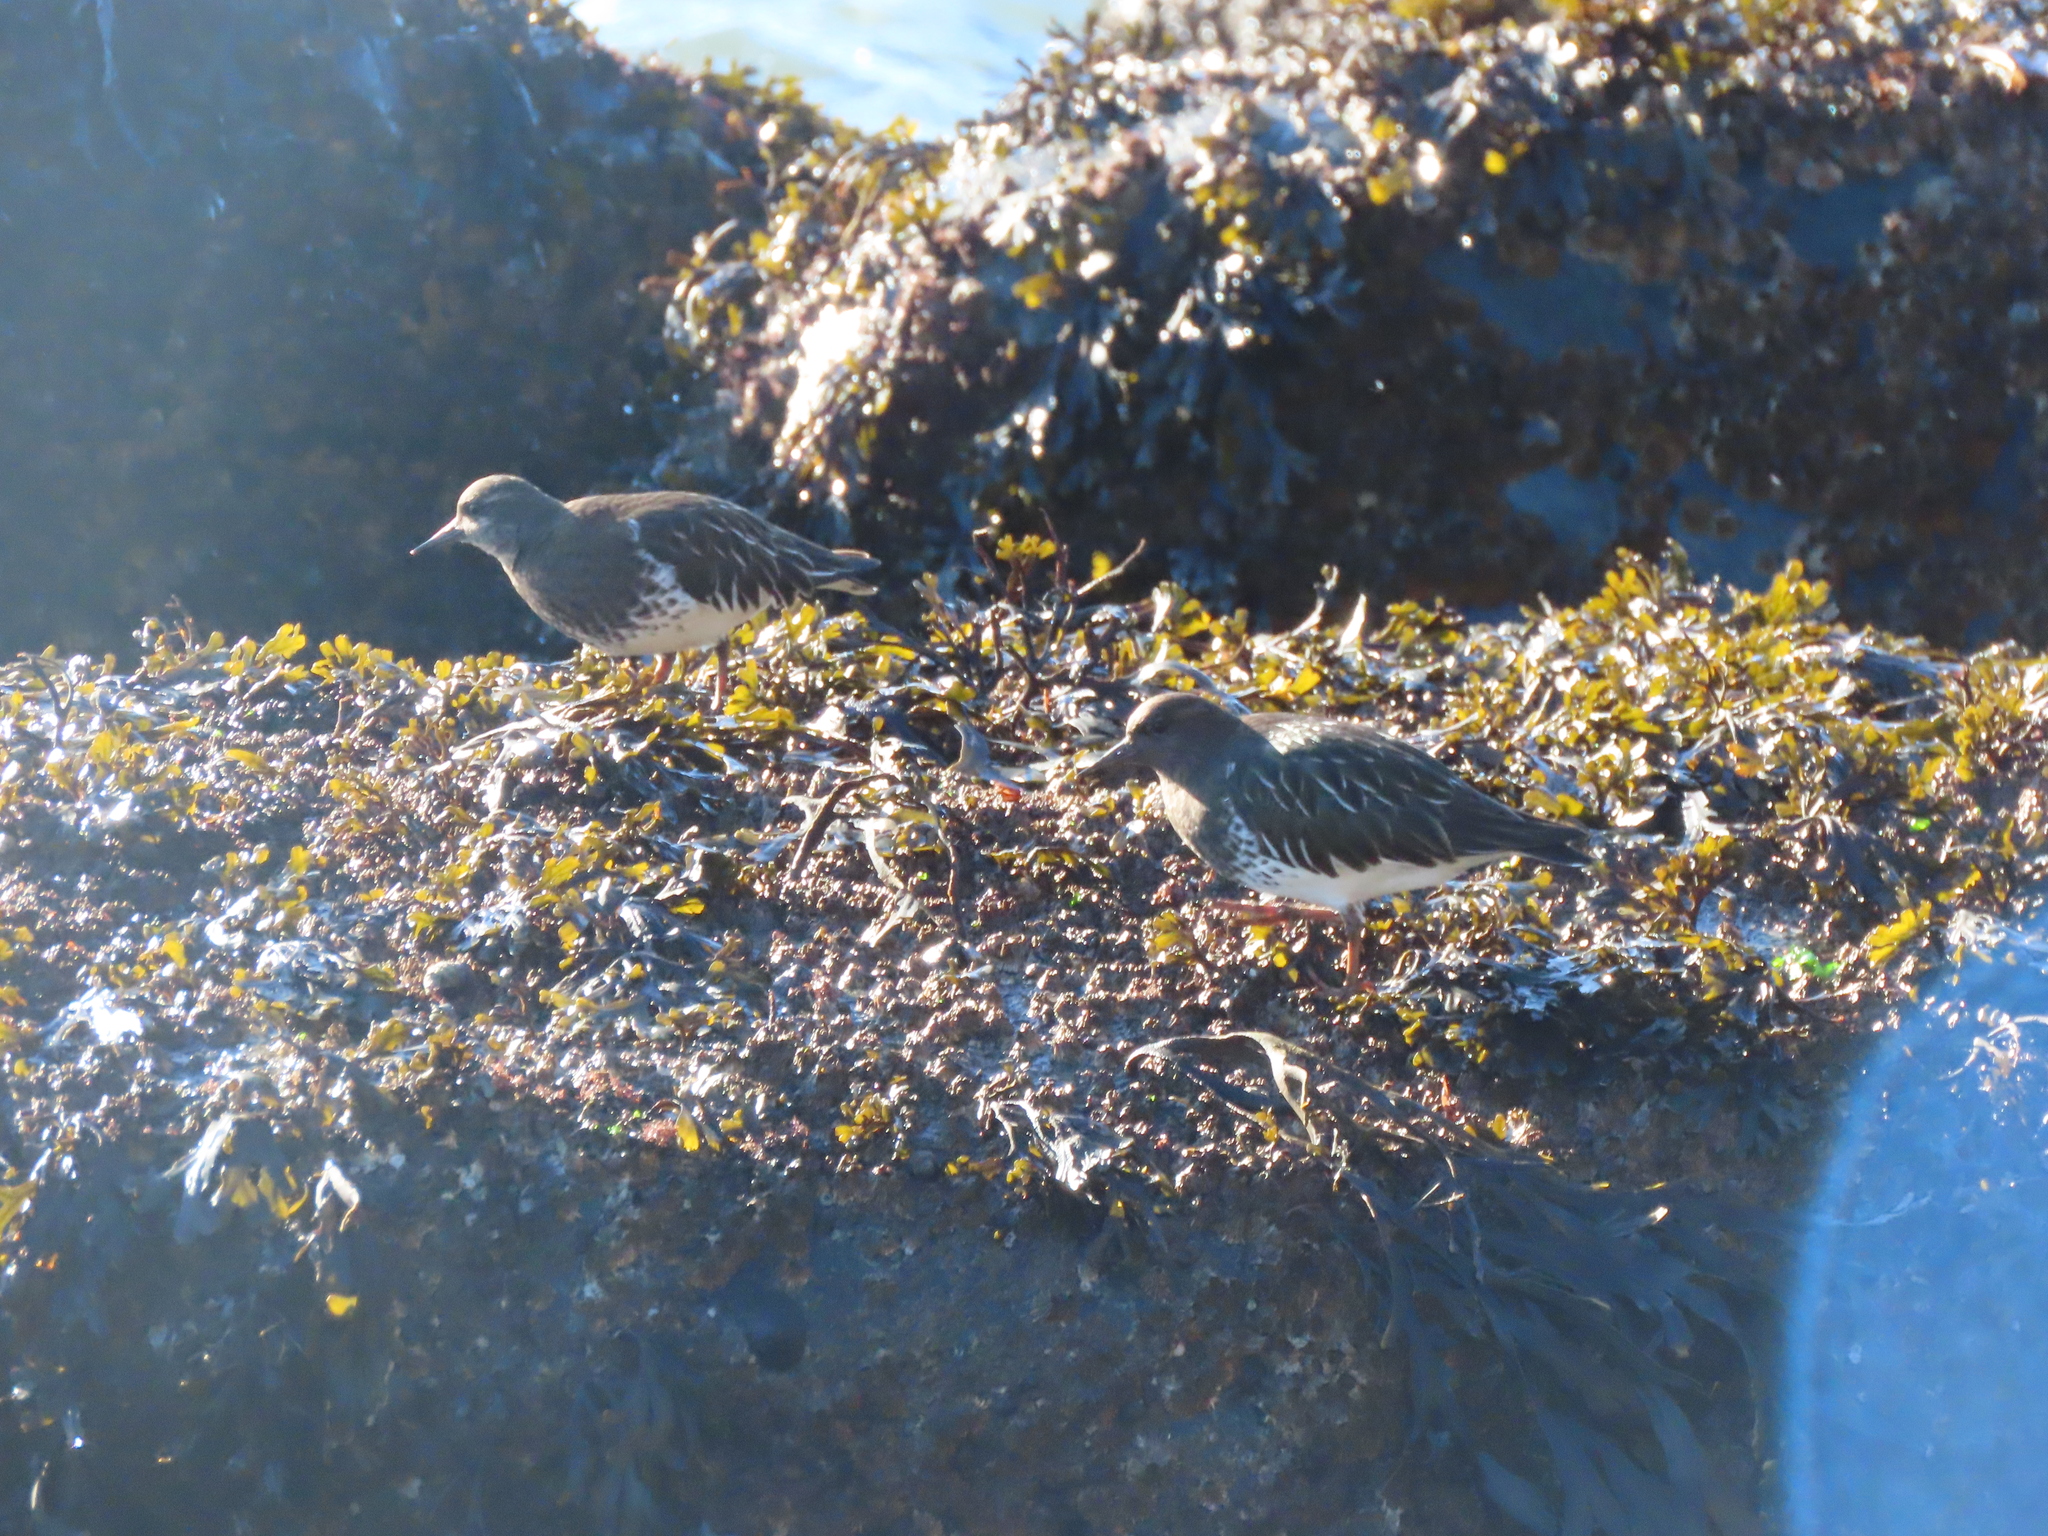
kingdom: Animalia
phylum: Chordata
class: Aves
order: Charadriiformes
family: Scolopacidae
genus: Arenaria
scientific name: Arenaria melanocephala
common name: Black turnstone
